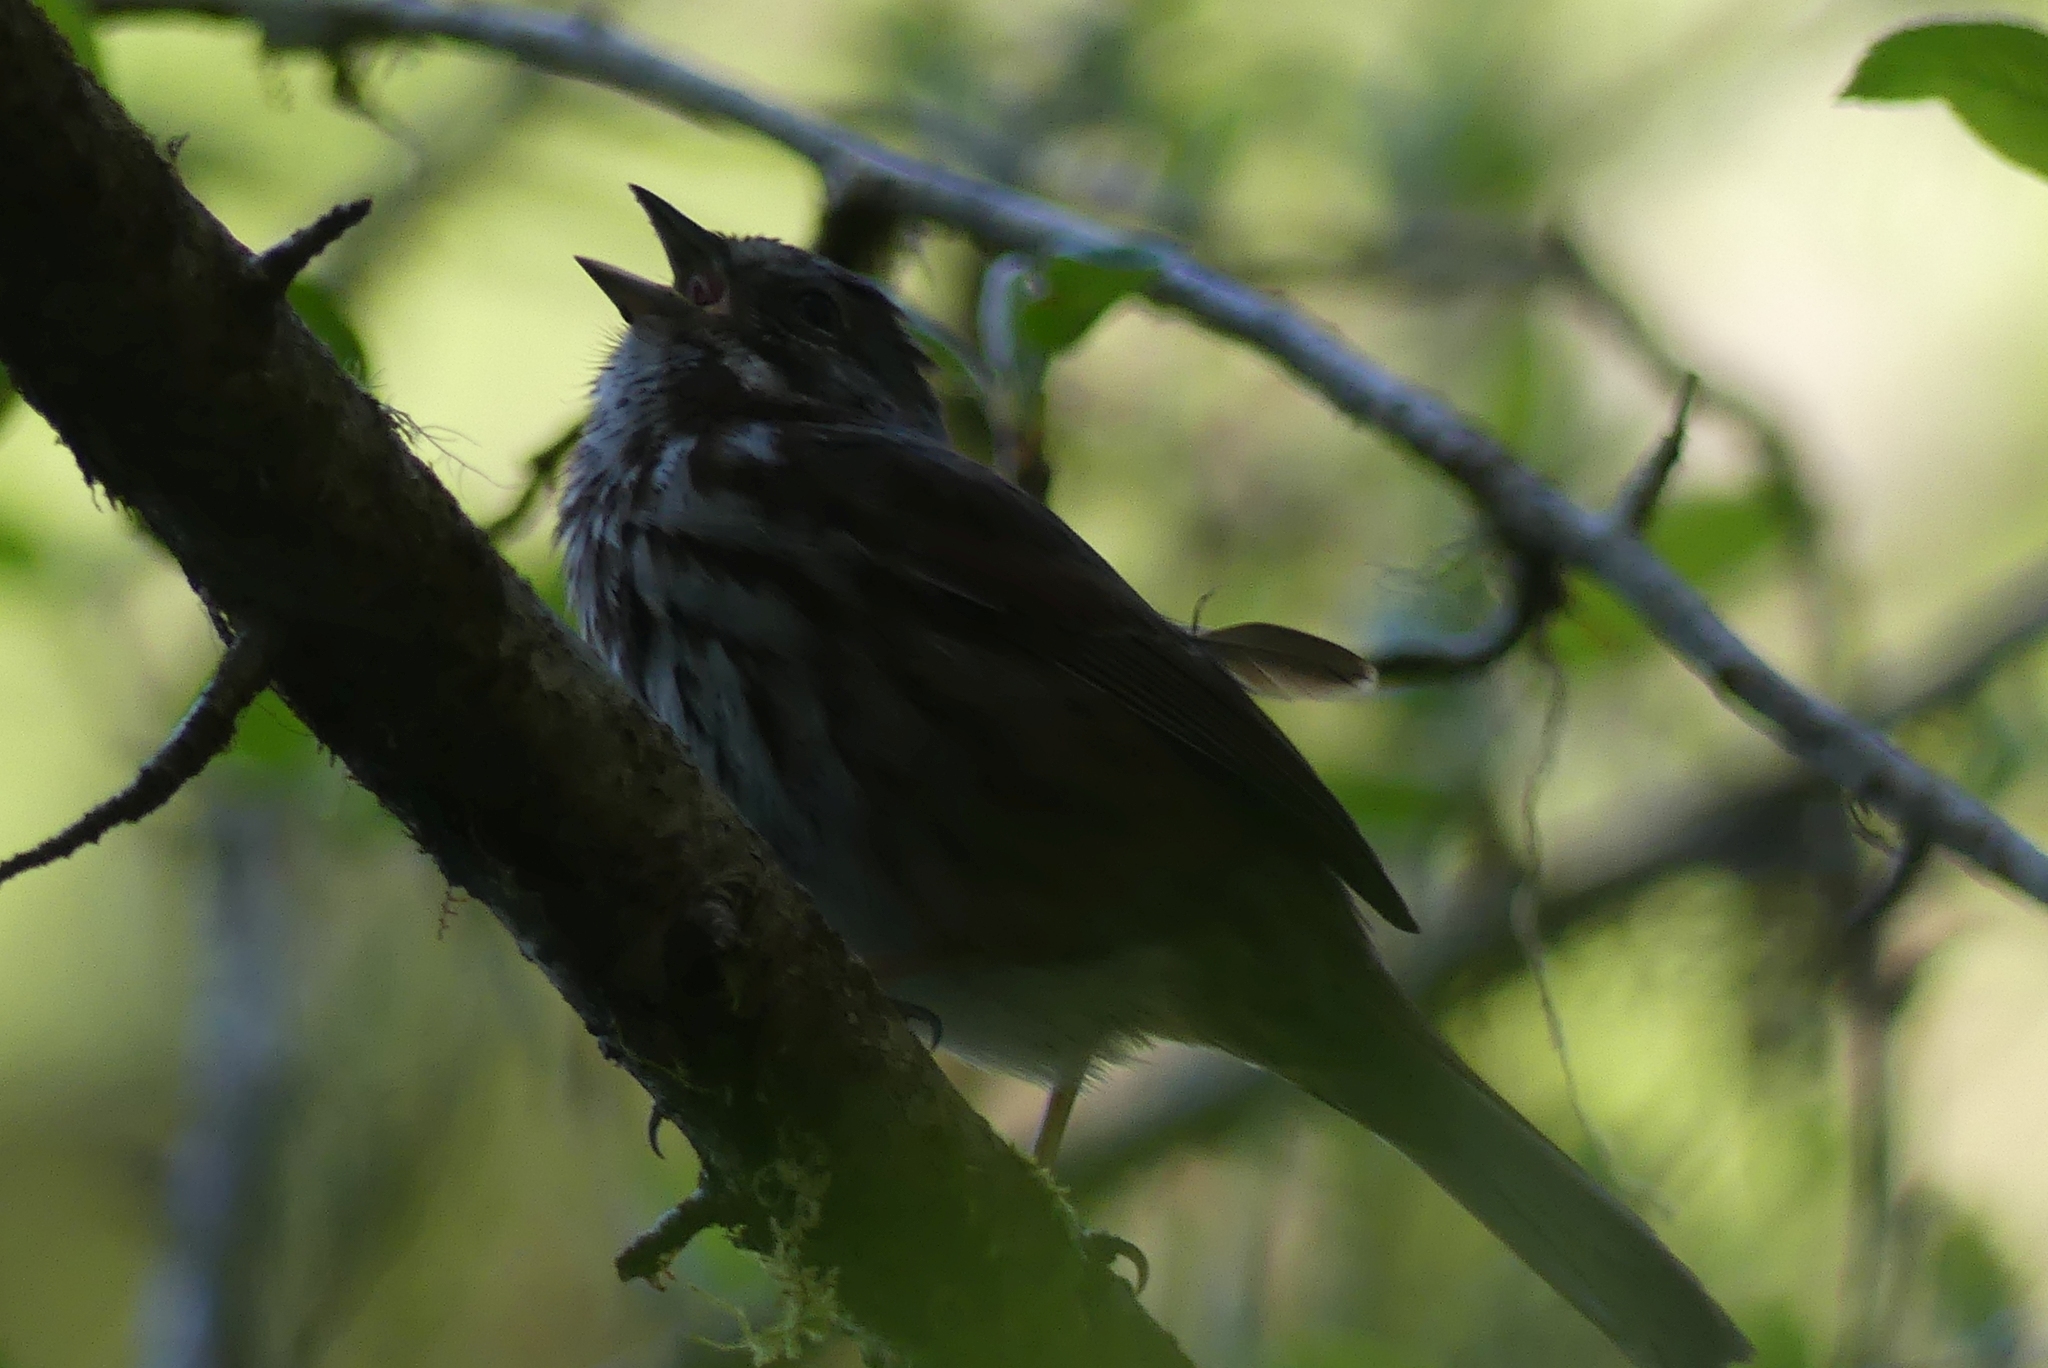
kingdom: Animalia
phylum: Chordata
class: Aves
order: Passeriformes
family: Passerellidae
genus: Melospiza
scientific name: Melospiza melodia
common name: Song sparrow
